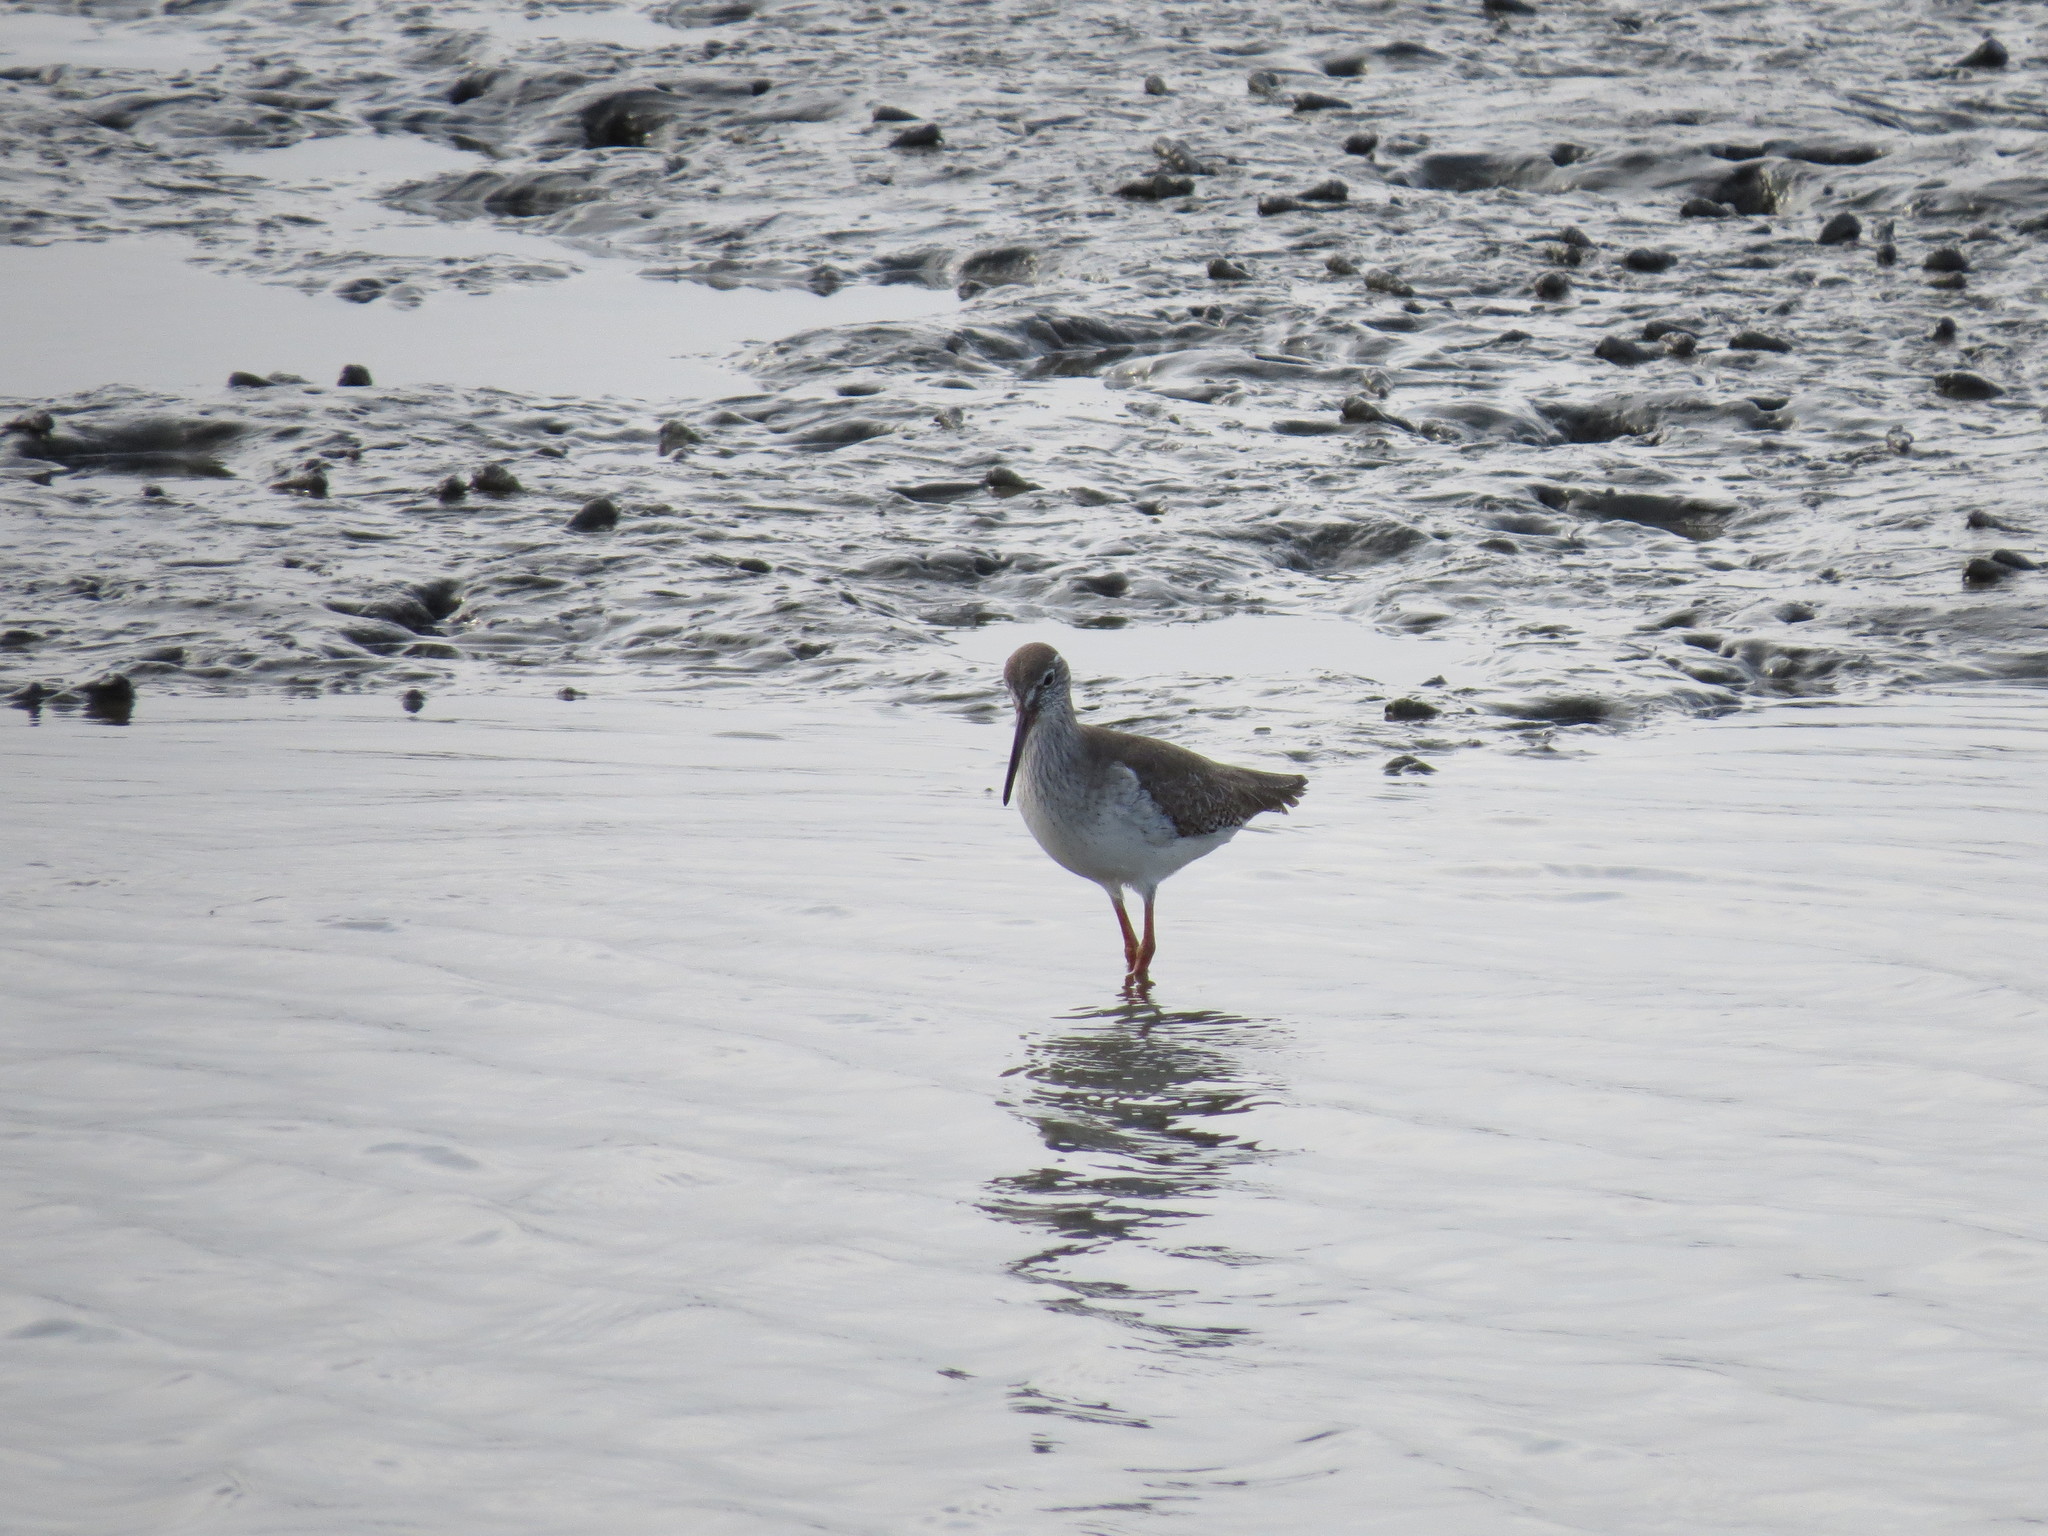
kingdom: Animalia
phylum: Chordata
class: Aves
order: Charadriiformes
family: Scolopacidae
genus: Tringa
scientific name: Tringa totanus
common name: Common redshank
